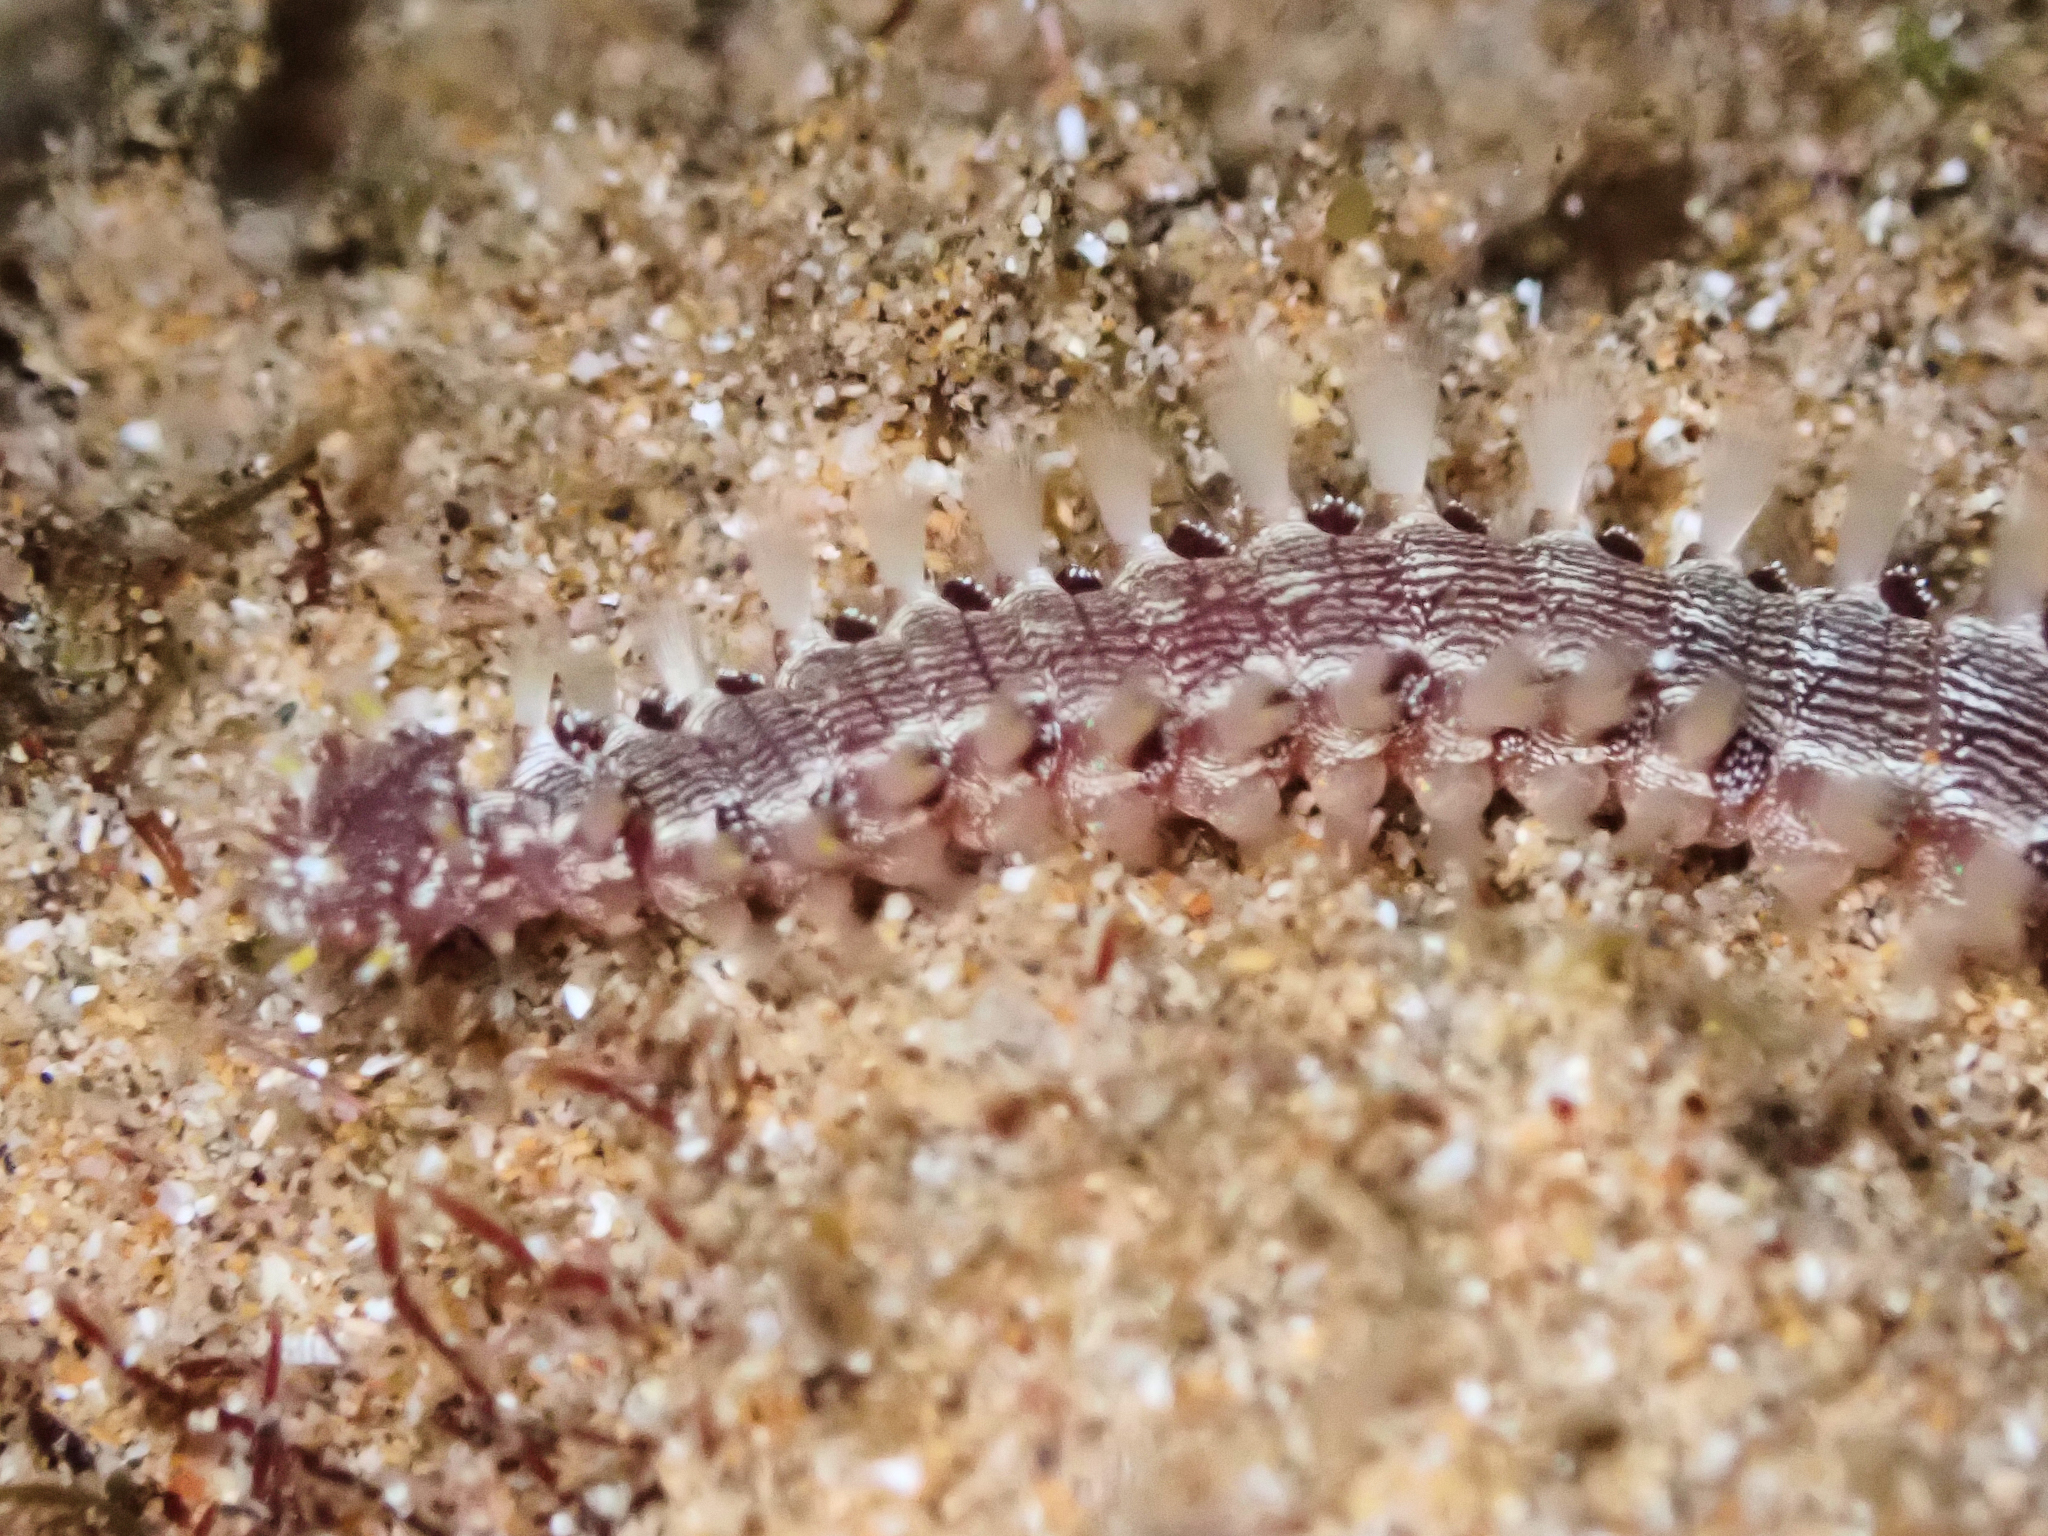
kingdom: Animalia
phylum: Annelida
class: Polychaeta
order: Amphinomida
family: Amphinomidae
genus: Pherecardia
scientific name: Pherecardia striata
